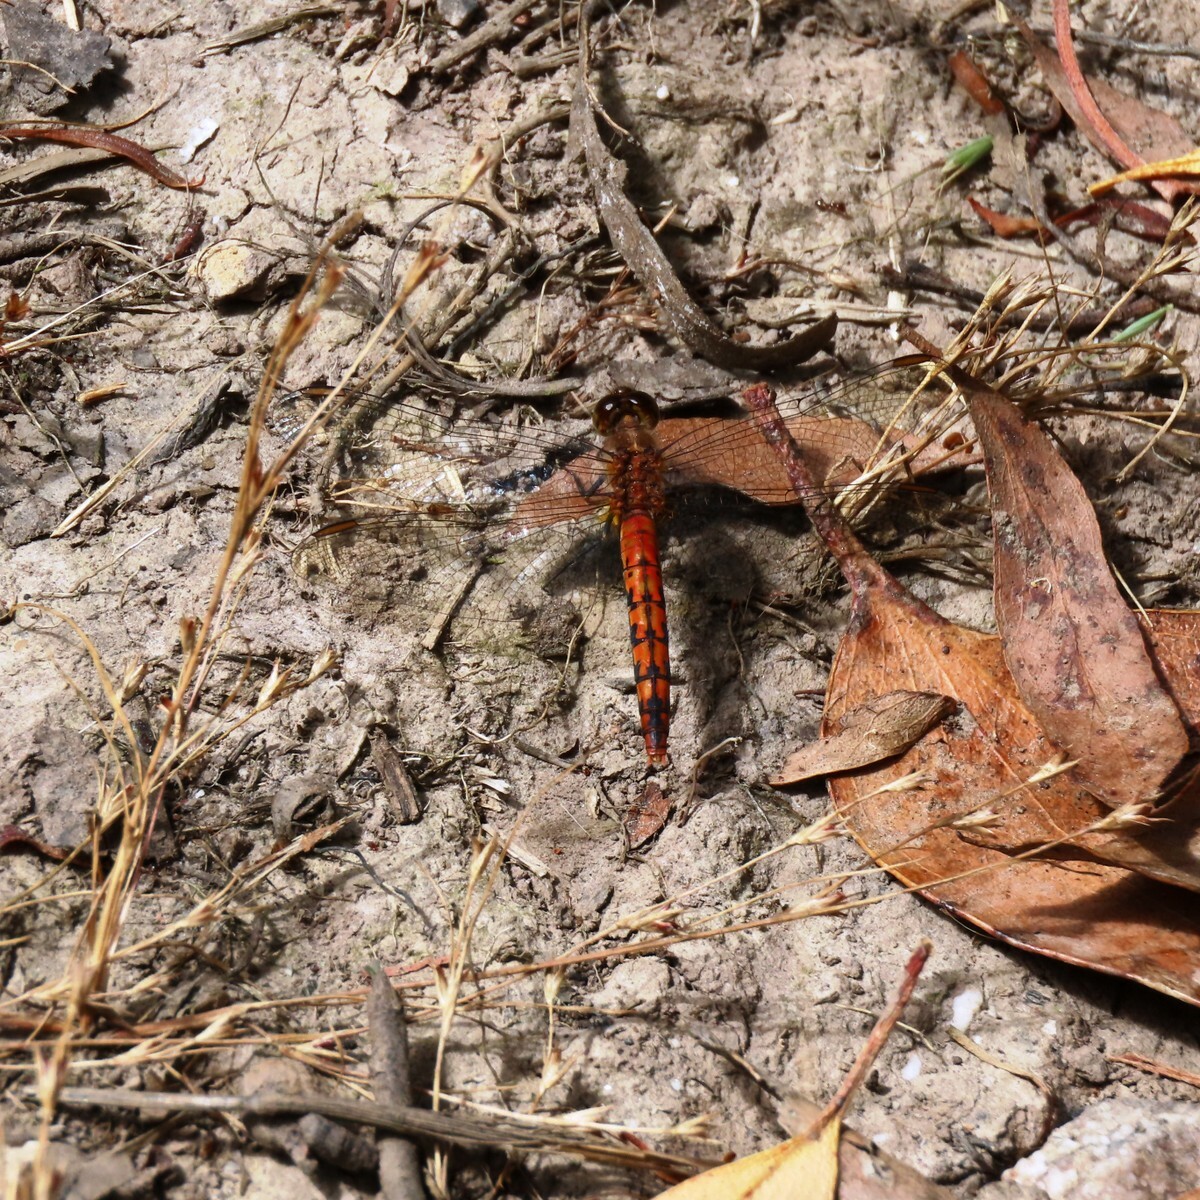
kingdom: Animalia
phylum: Arthropoda
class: Insecta
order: Odonata
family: Libellulidae
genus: Diplacodes
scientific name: Diplacodes melanopsis
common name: Black-faced percher
